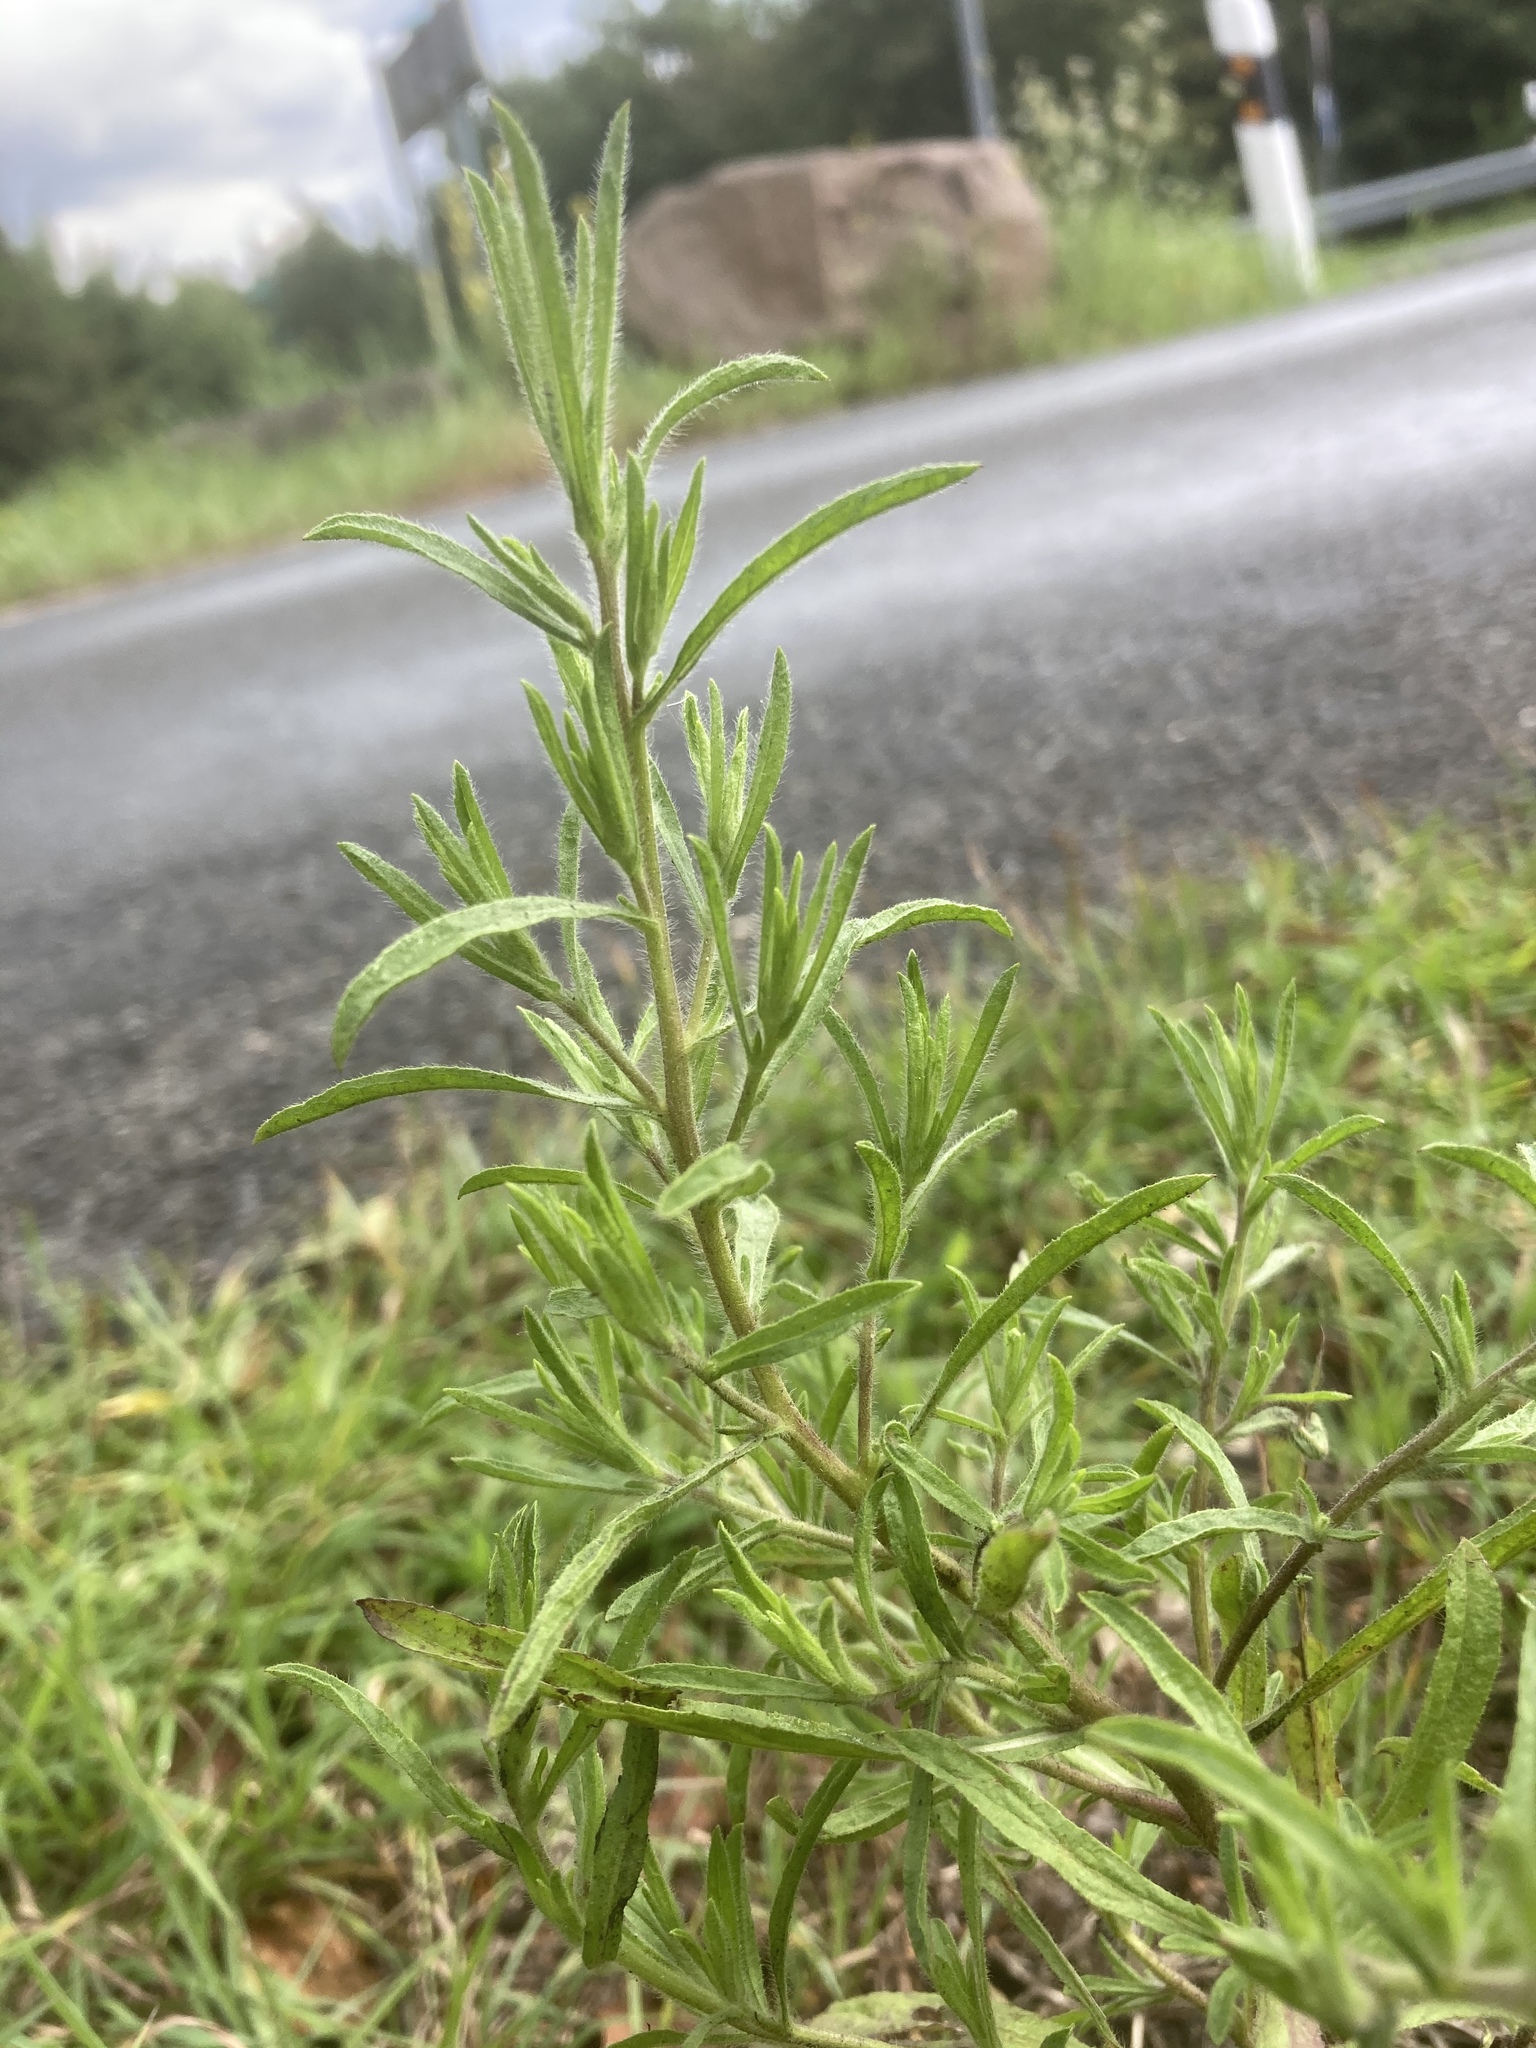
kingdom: Plantae
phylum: Tracheophyta
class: Magnoliopsida
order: Asterales
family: Asteraceae
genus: Dittrichia
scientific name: Dittrichia graveolens
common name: Stinking fleabane
